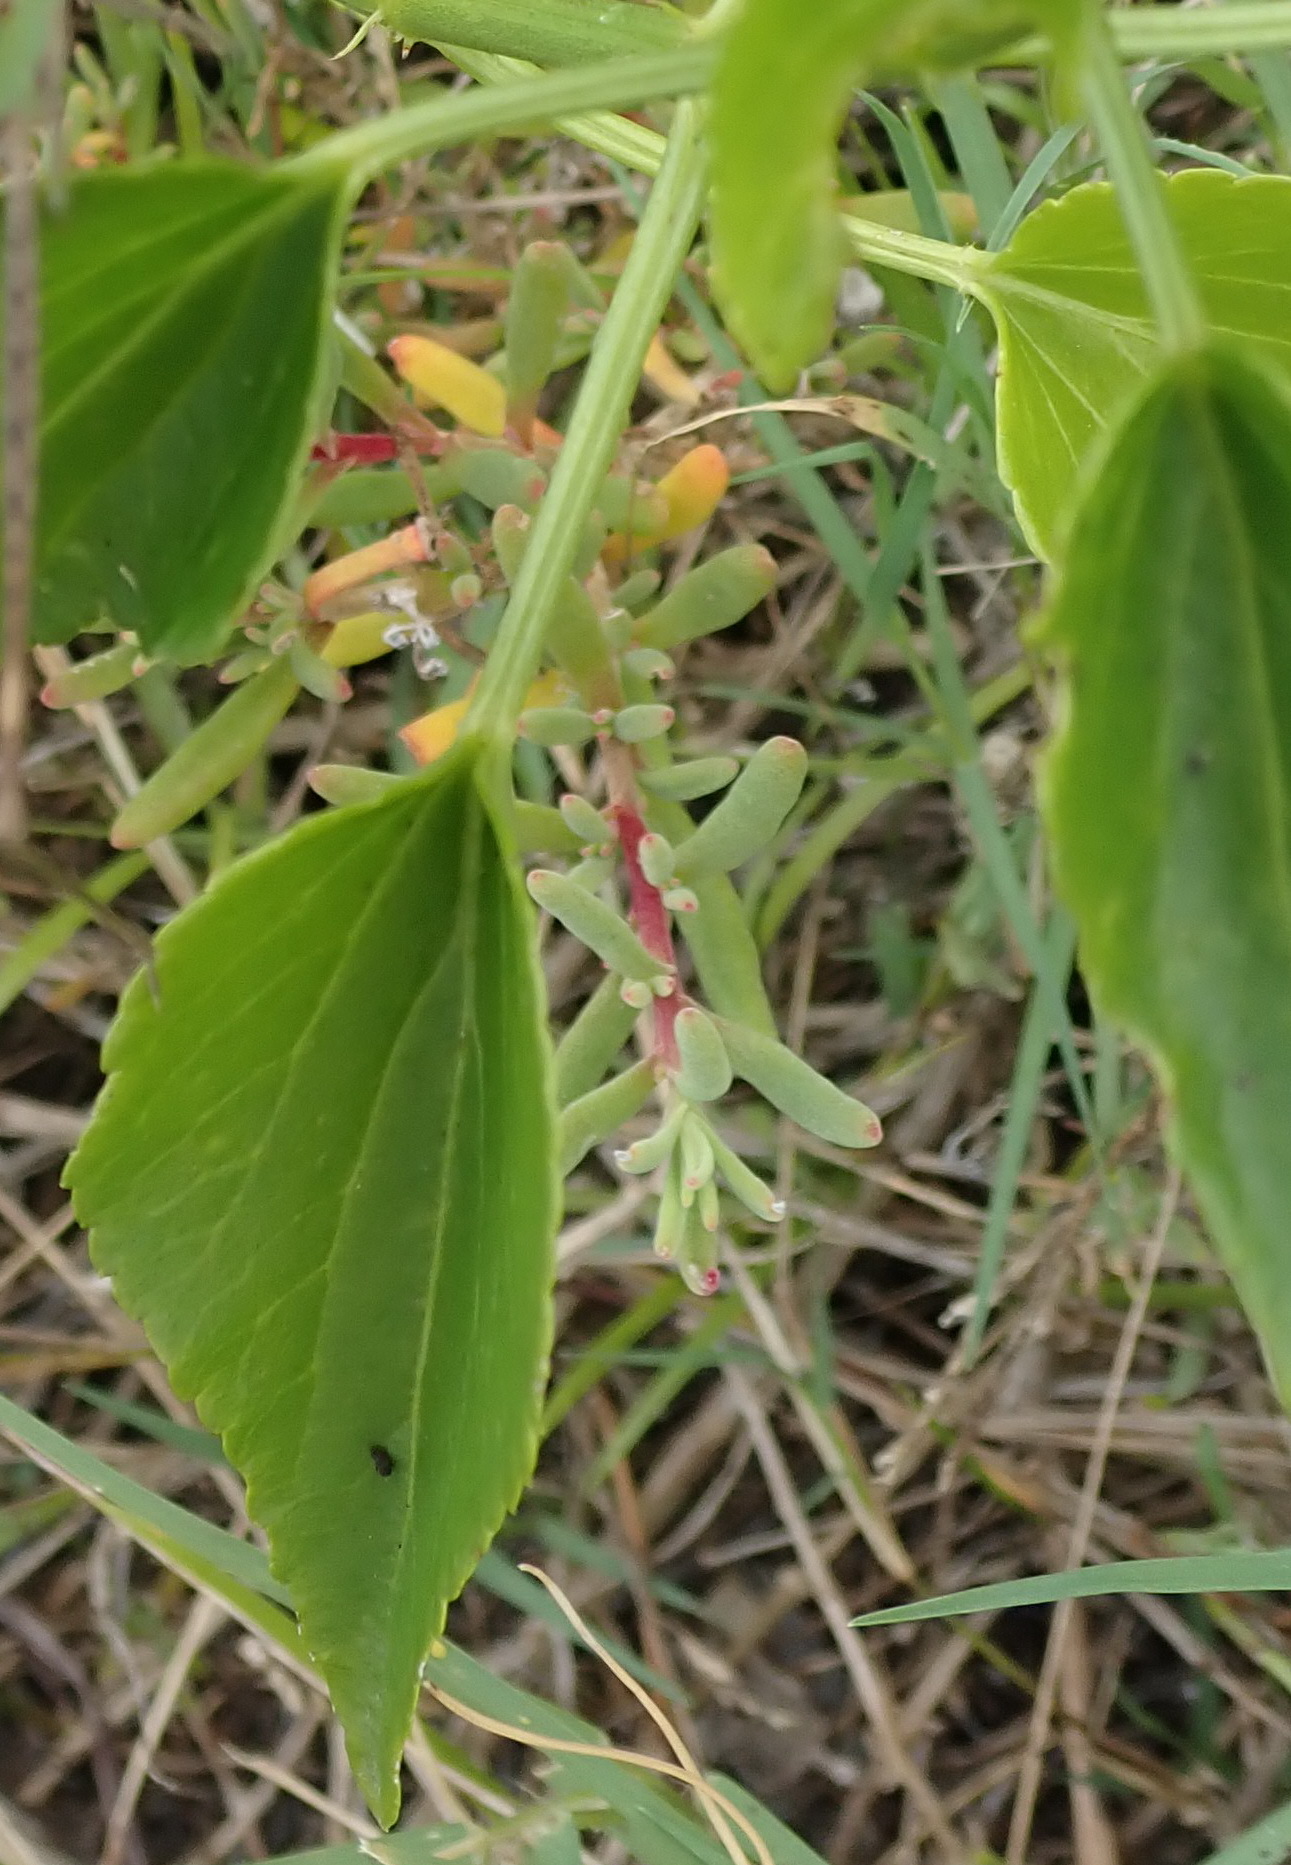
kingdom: Plantae
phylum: Tracheophyta
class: Magnoliopsida
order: Malpighiales
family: Euphorbiaceae
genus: Adenocline
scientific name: Adenocline acuta
